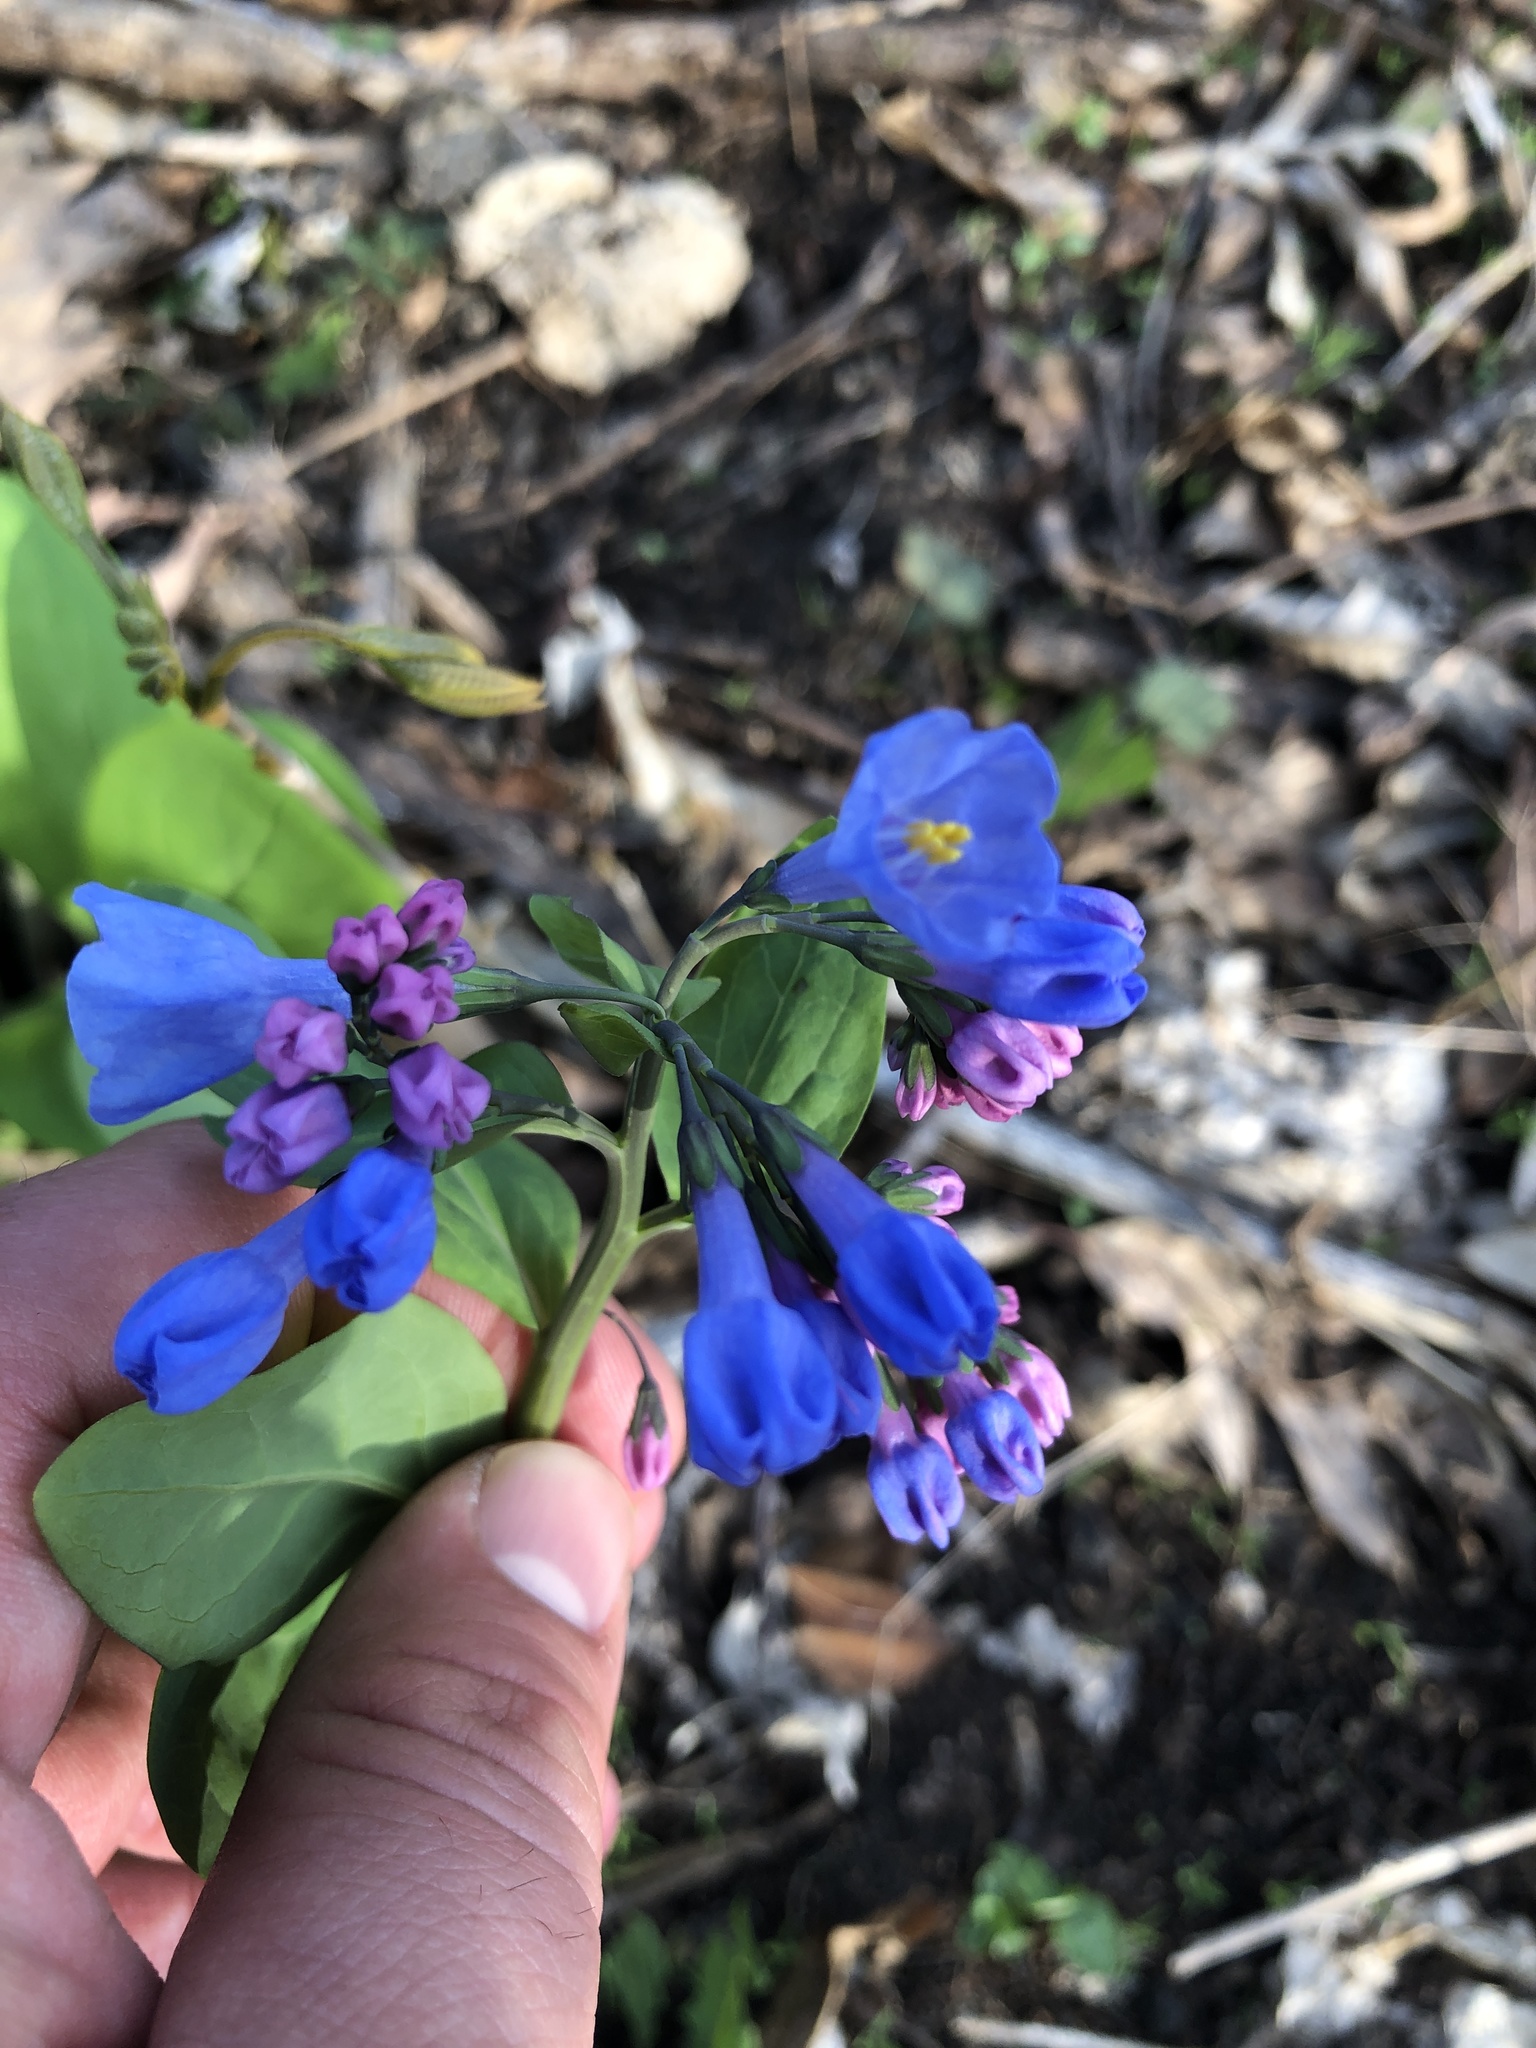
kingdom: Plantae
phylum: Tracheophyta
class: Magnoliopsida
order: Boraginales
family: Boraginaceae
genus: Mertensia
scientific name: Mertensia virginica
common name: Virginia bluebells
